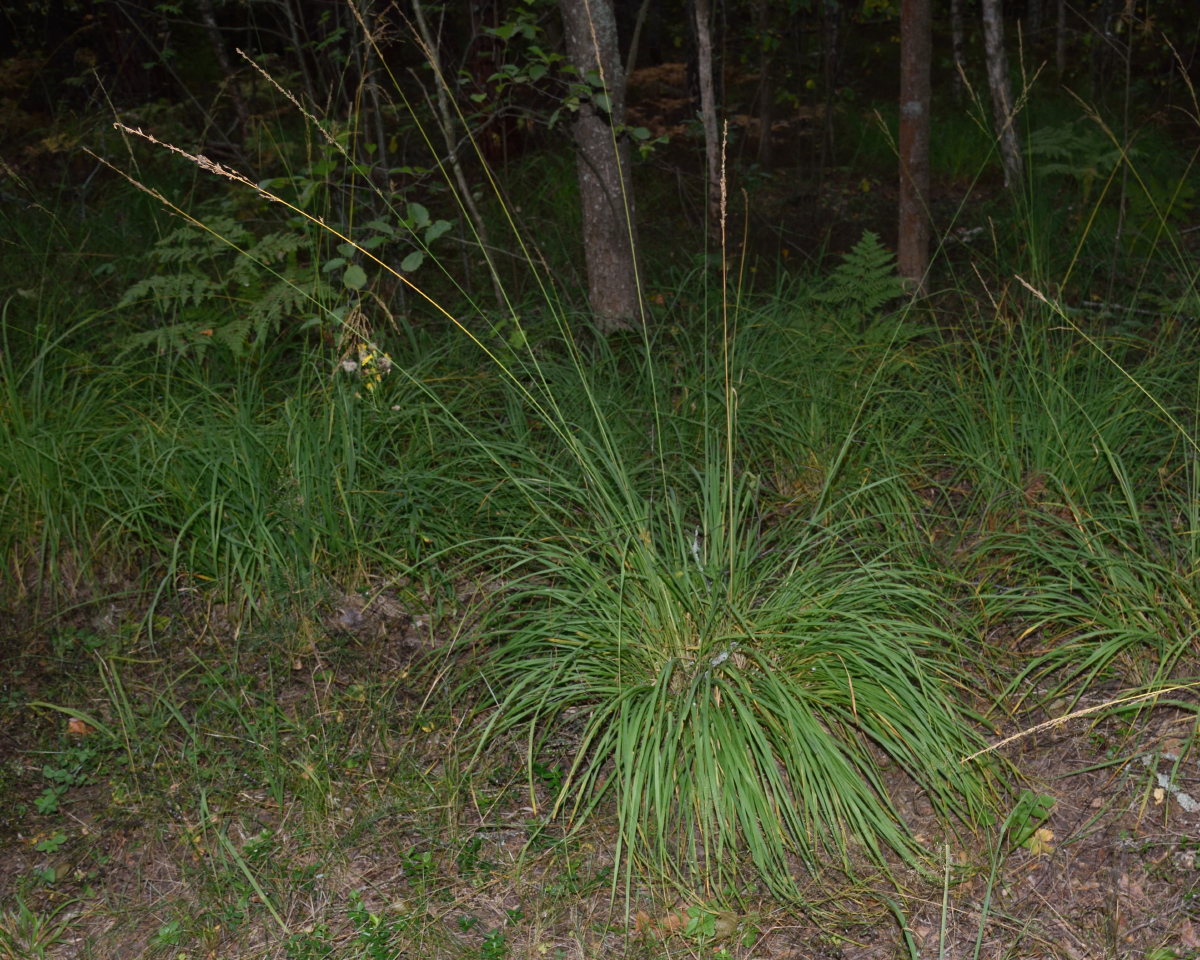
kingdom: Plantae
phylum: Tracheophyta
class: Liliopsida
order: Poales
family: Poaceae
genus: Molinia
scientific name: Molinia caerulea
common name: Purple moor-grass
